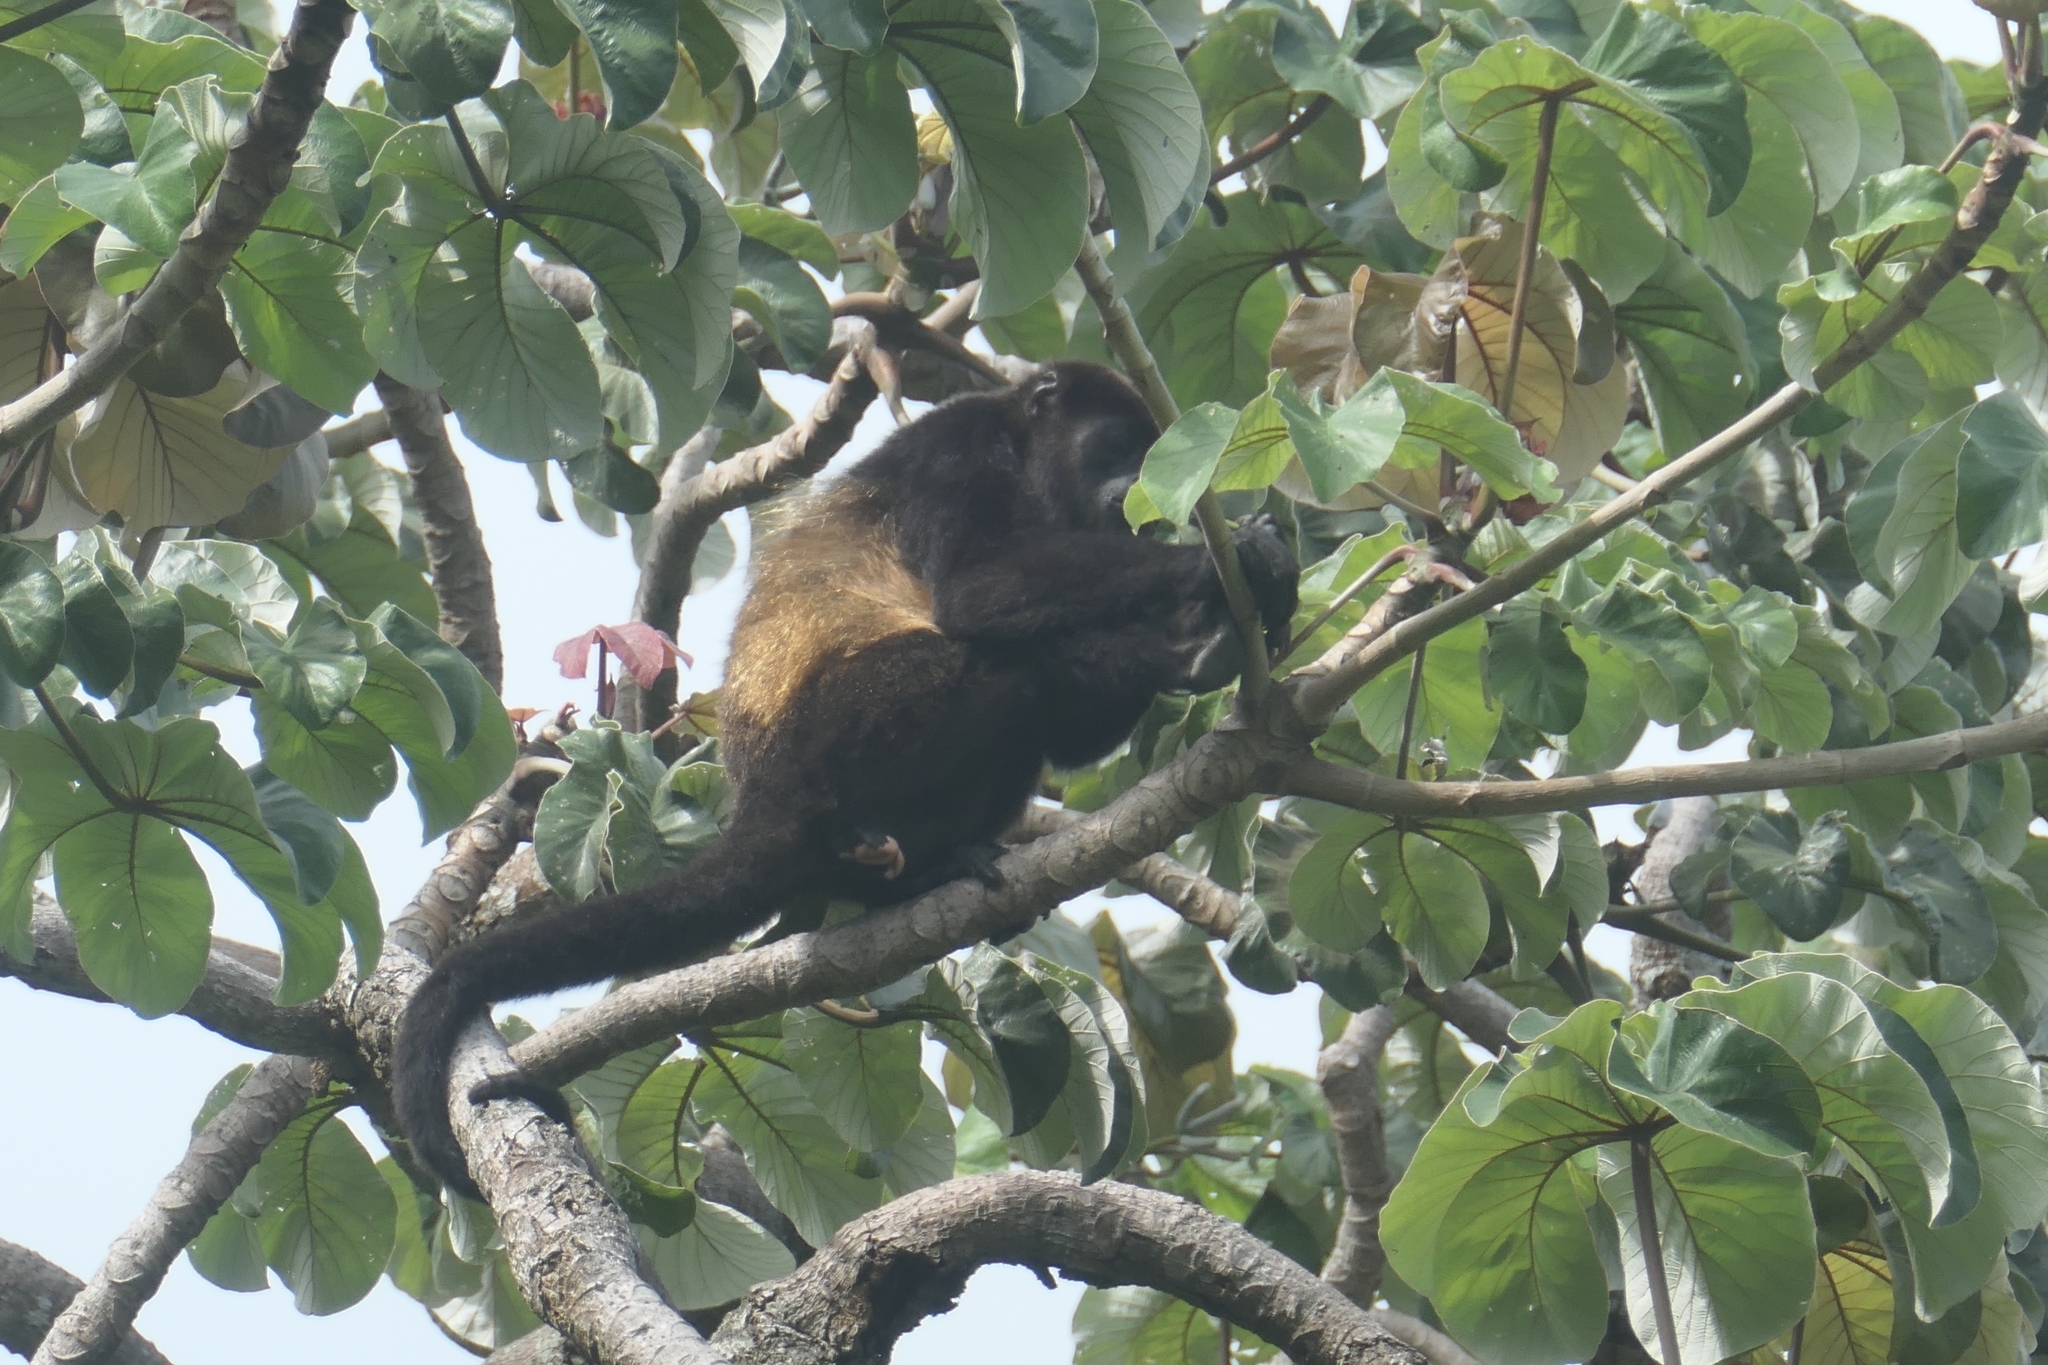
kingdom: Animalia
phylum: Chordata
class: Mammalia
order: Primates
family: Atelidae
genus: Alouatta
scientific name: Alouatta palliata
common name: Mantled howler
